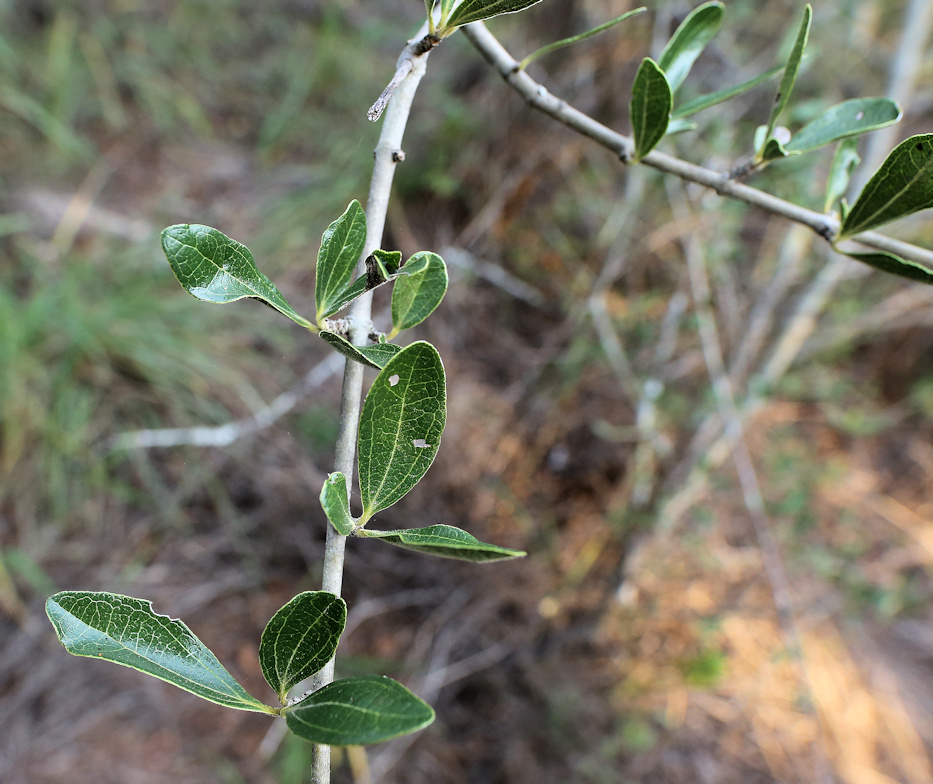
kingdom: Plantae
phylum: Tracheophyta
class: Magnoliopsida
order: Gentianales
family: Loganiaceae
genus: Strychnos
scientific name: Strychnos madagascariensis
